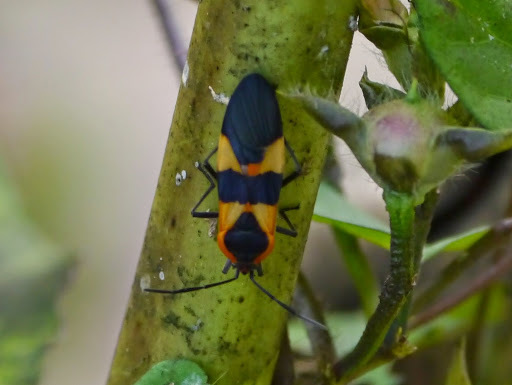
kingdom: Animalia
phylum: Arthropoda
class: Insecta
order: Hemiptera
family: Lygaeidae
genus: Oncopeltus
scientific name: Oncopeltus fasciatus
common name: Large milkweed bug
